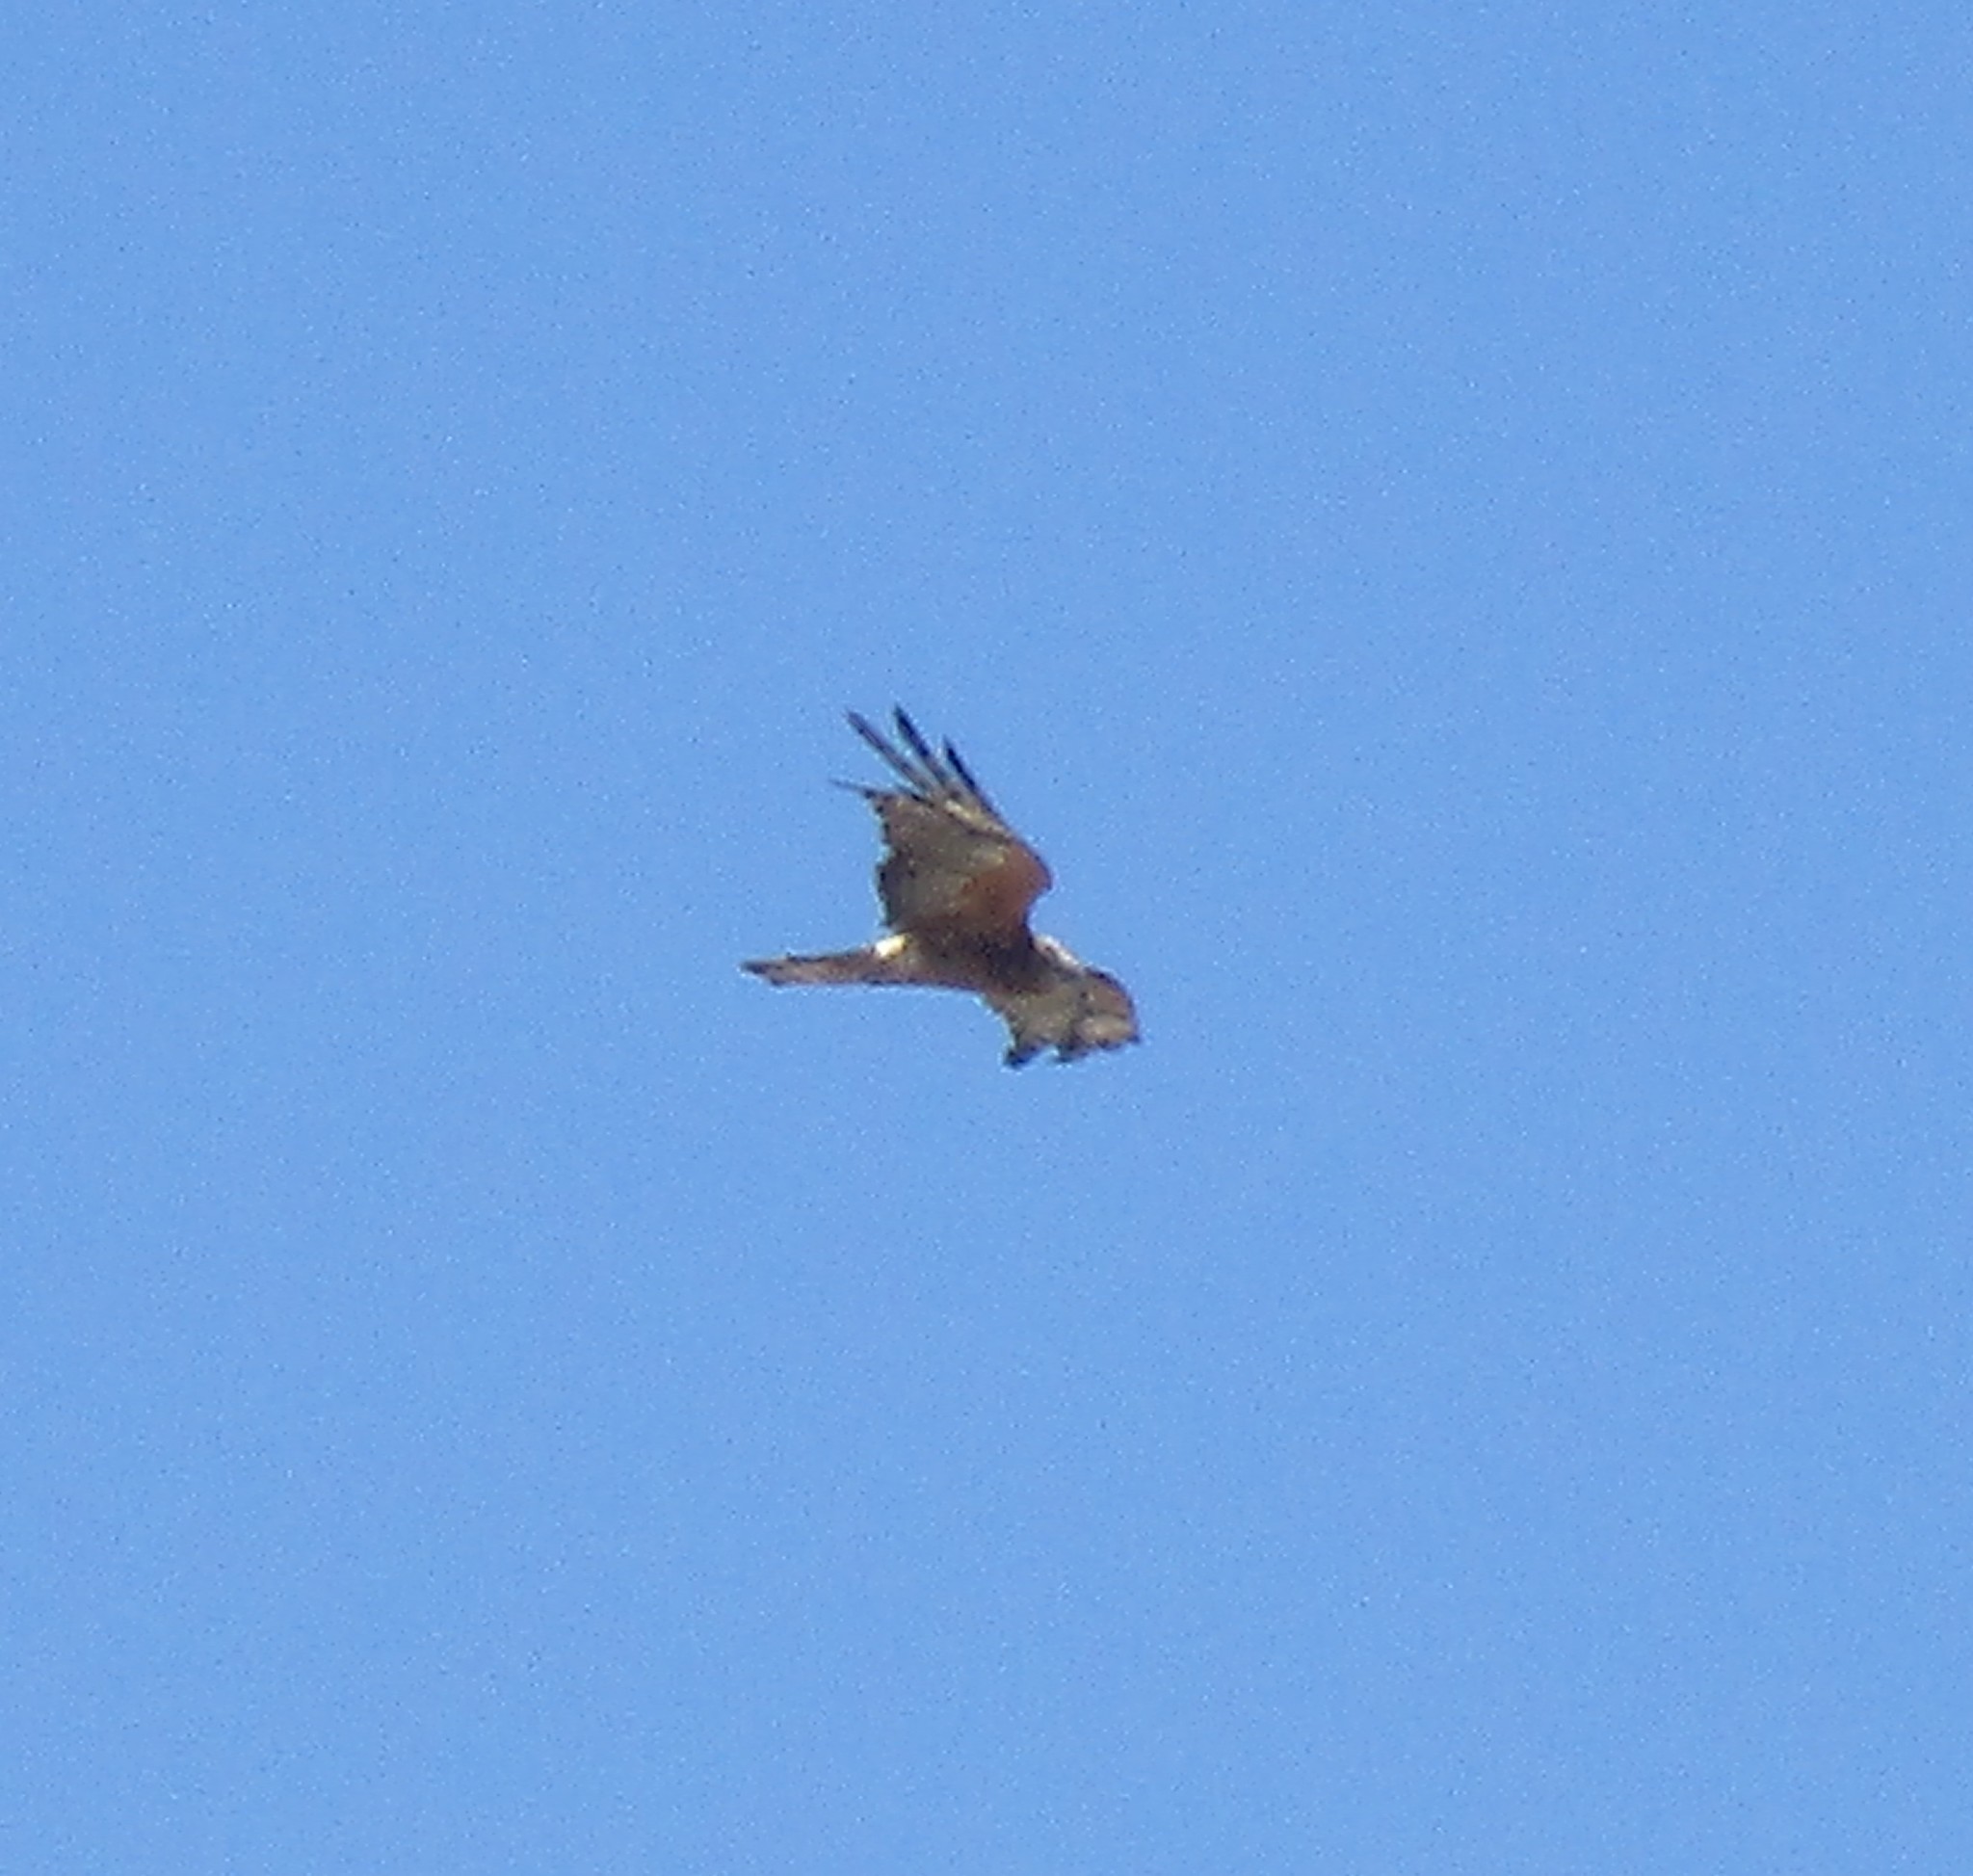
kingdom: Animalia
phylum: Chordata
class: Aves
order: Accipitriformes
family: Accipitridae
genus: Lophoictinia
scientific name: Lophoictinia isura
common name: Square-tailed kite
